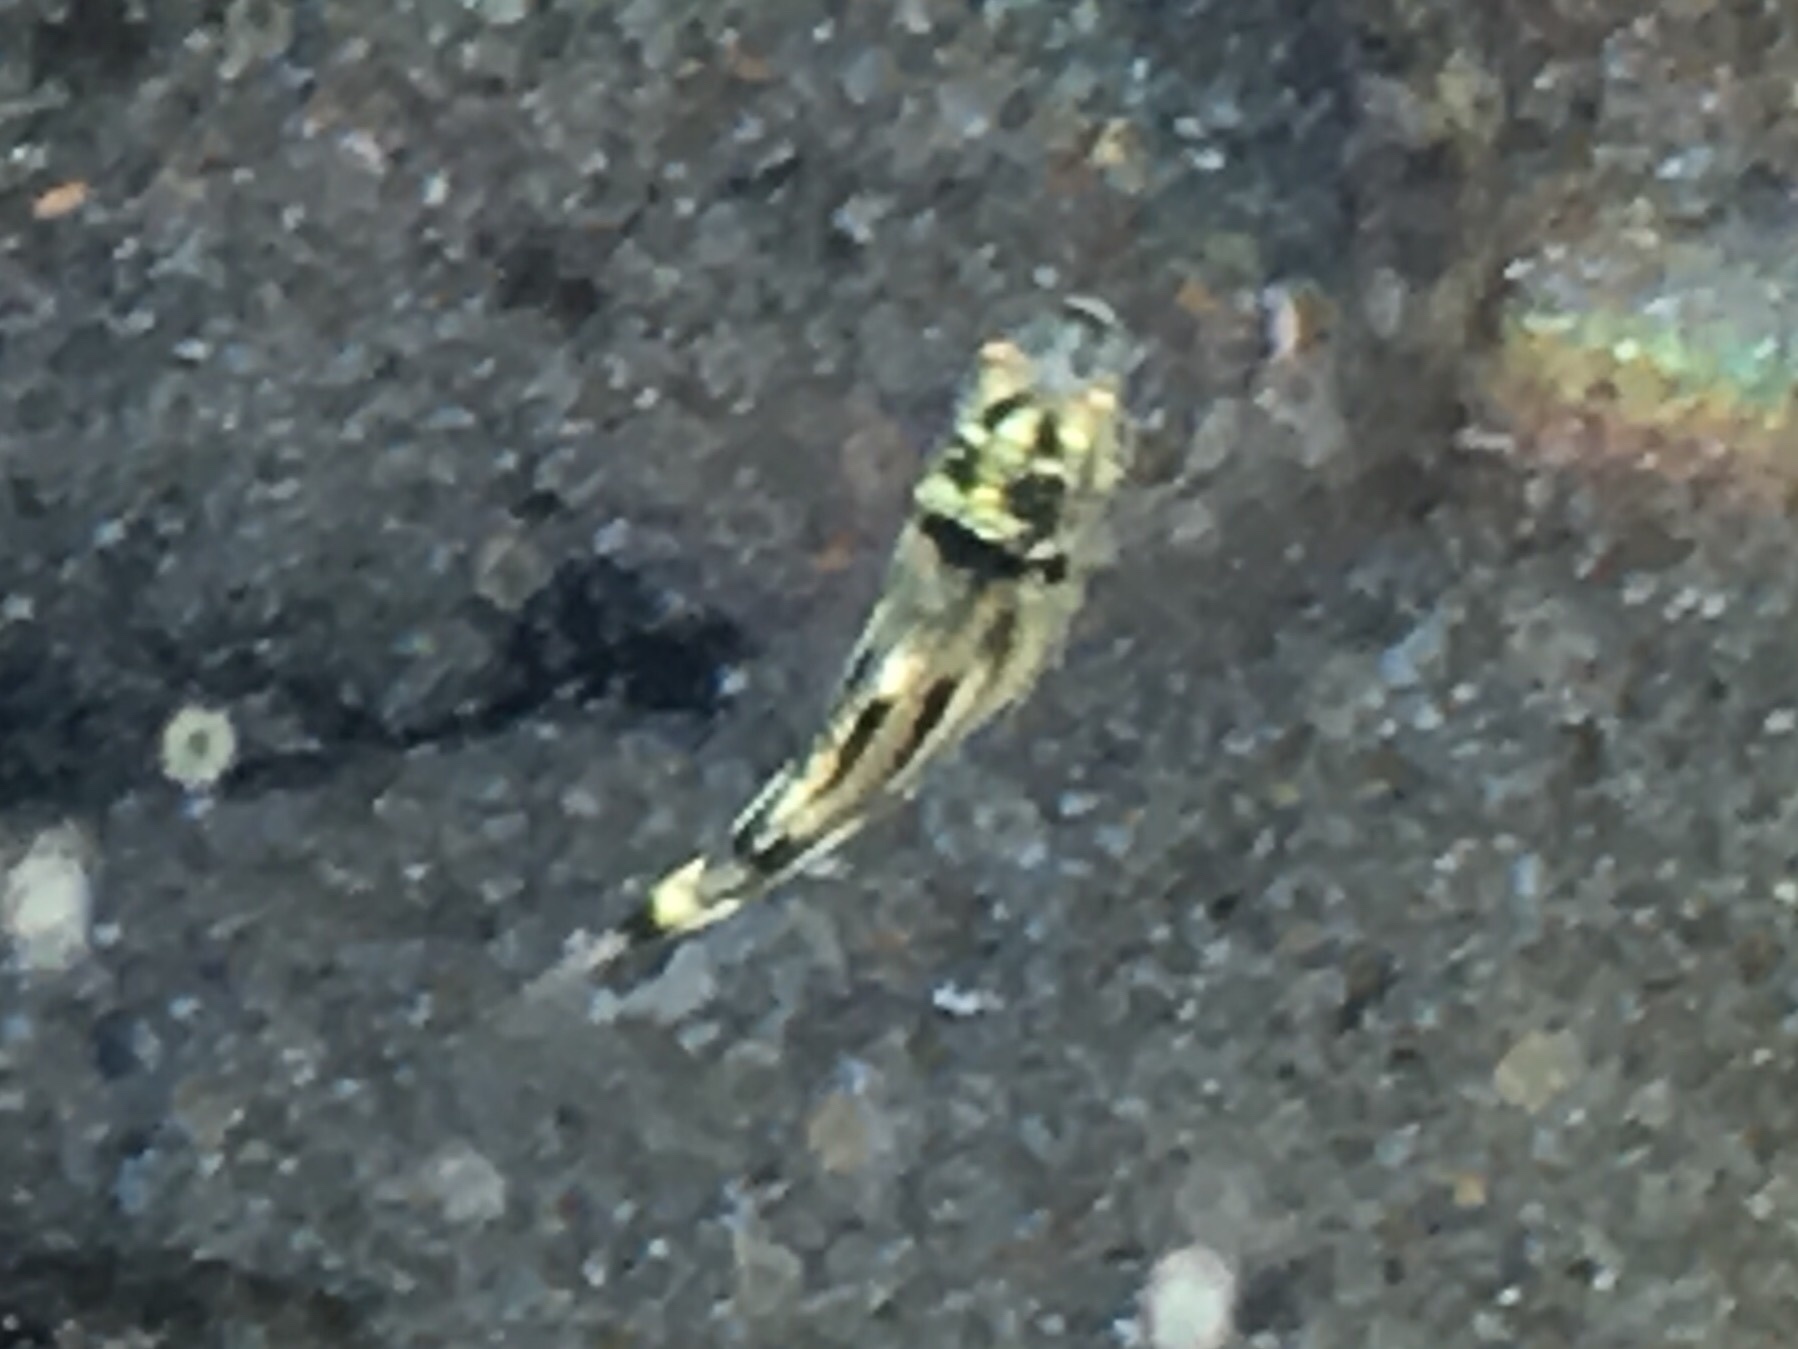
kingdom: Animalia
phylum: Chordata
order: Perciformes
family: Kyphosidae
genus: Microcanthus
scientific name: Microcanthus joyceae
